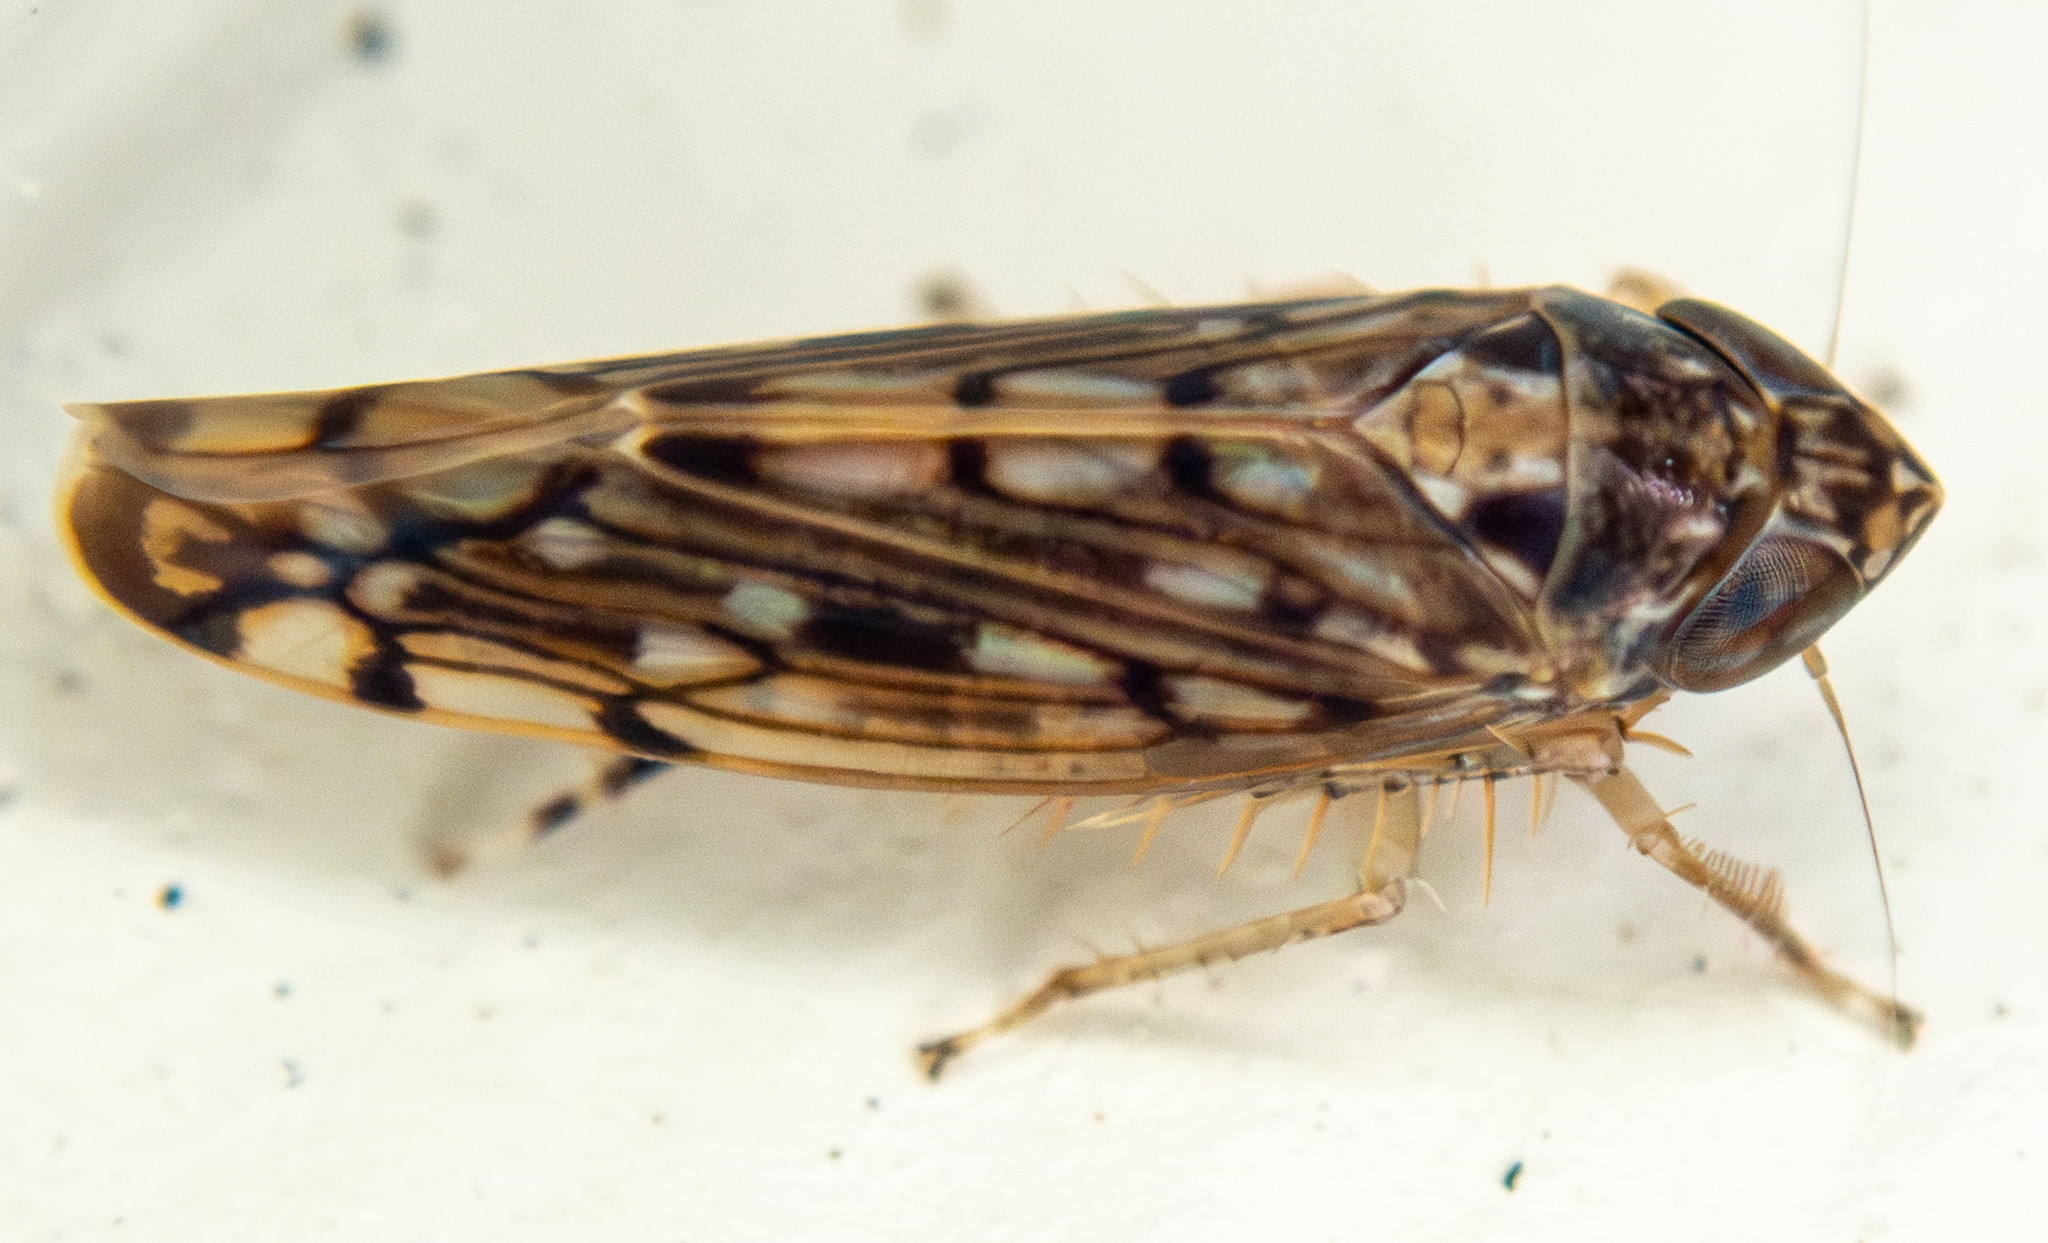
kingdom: Animalia
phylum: Arthropoda
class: Insecta
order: Hemiptera
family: Cicadellidae
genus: Osbornellus
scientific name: Osbornellus scalaris
